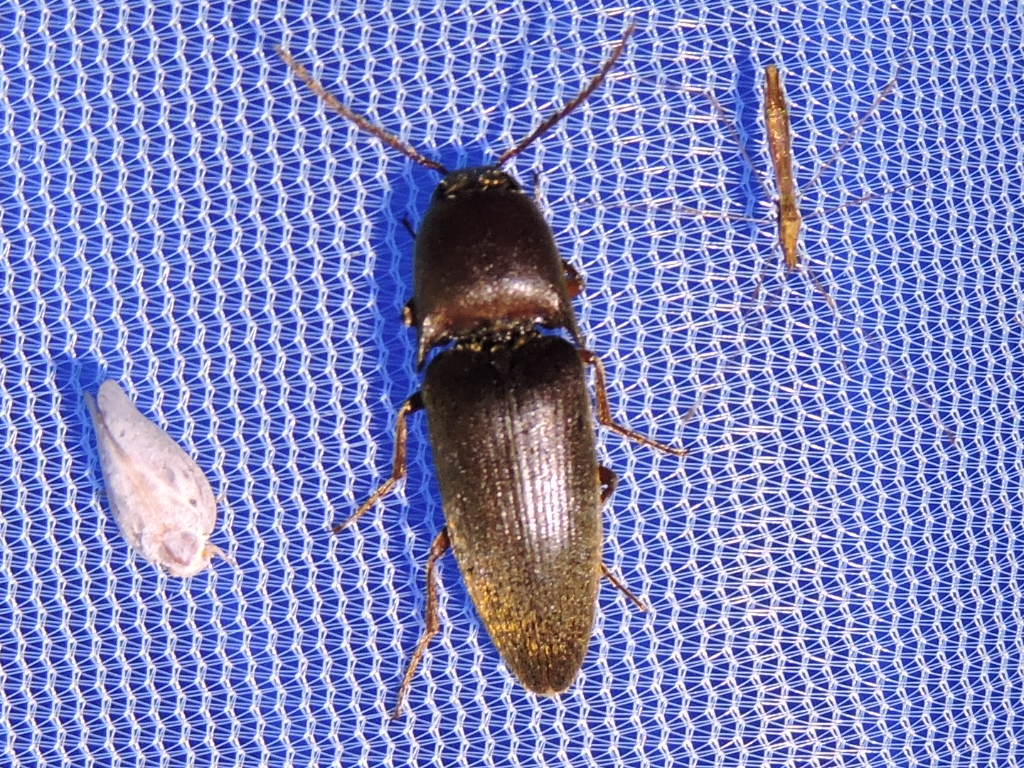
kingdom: Animalia
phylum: Arthropoda
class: Insecta
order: Coleoptera
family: Elateridae
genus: Diplostethus
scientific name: Diplostethus
